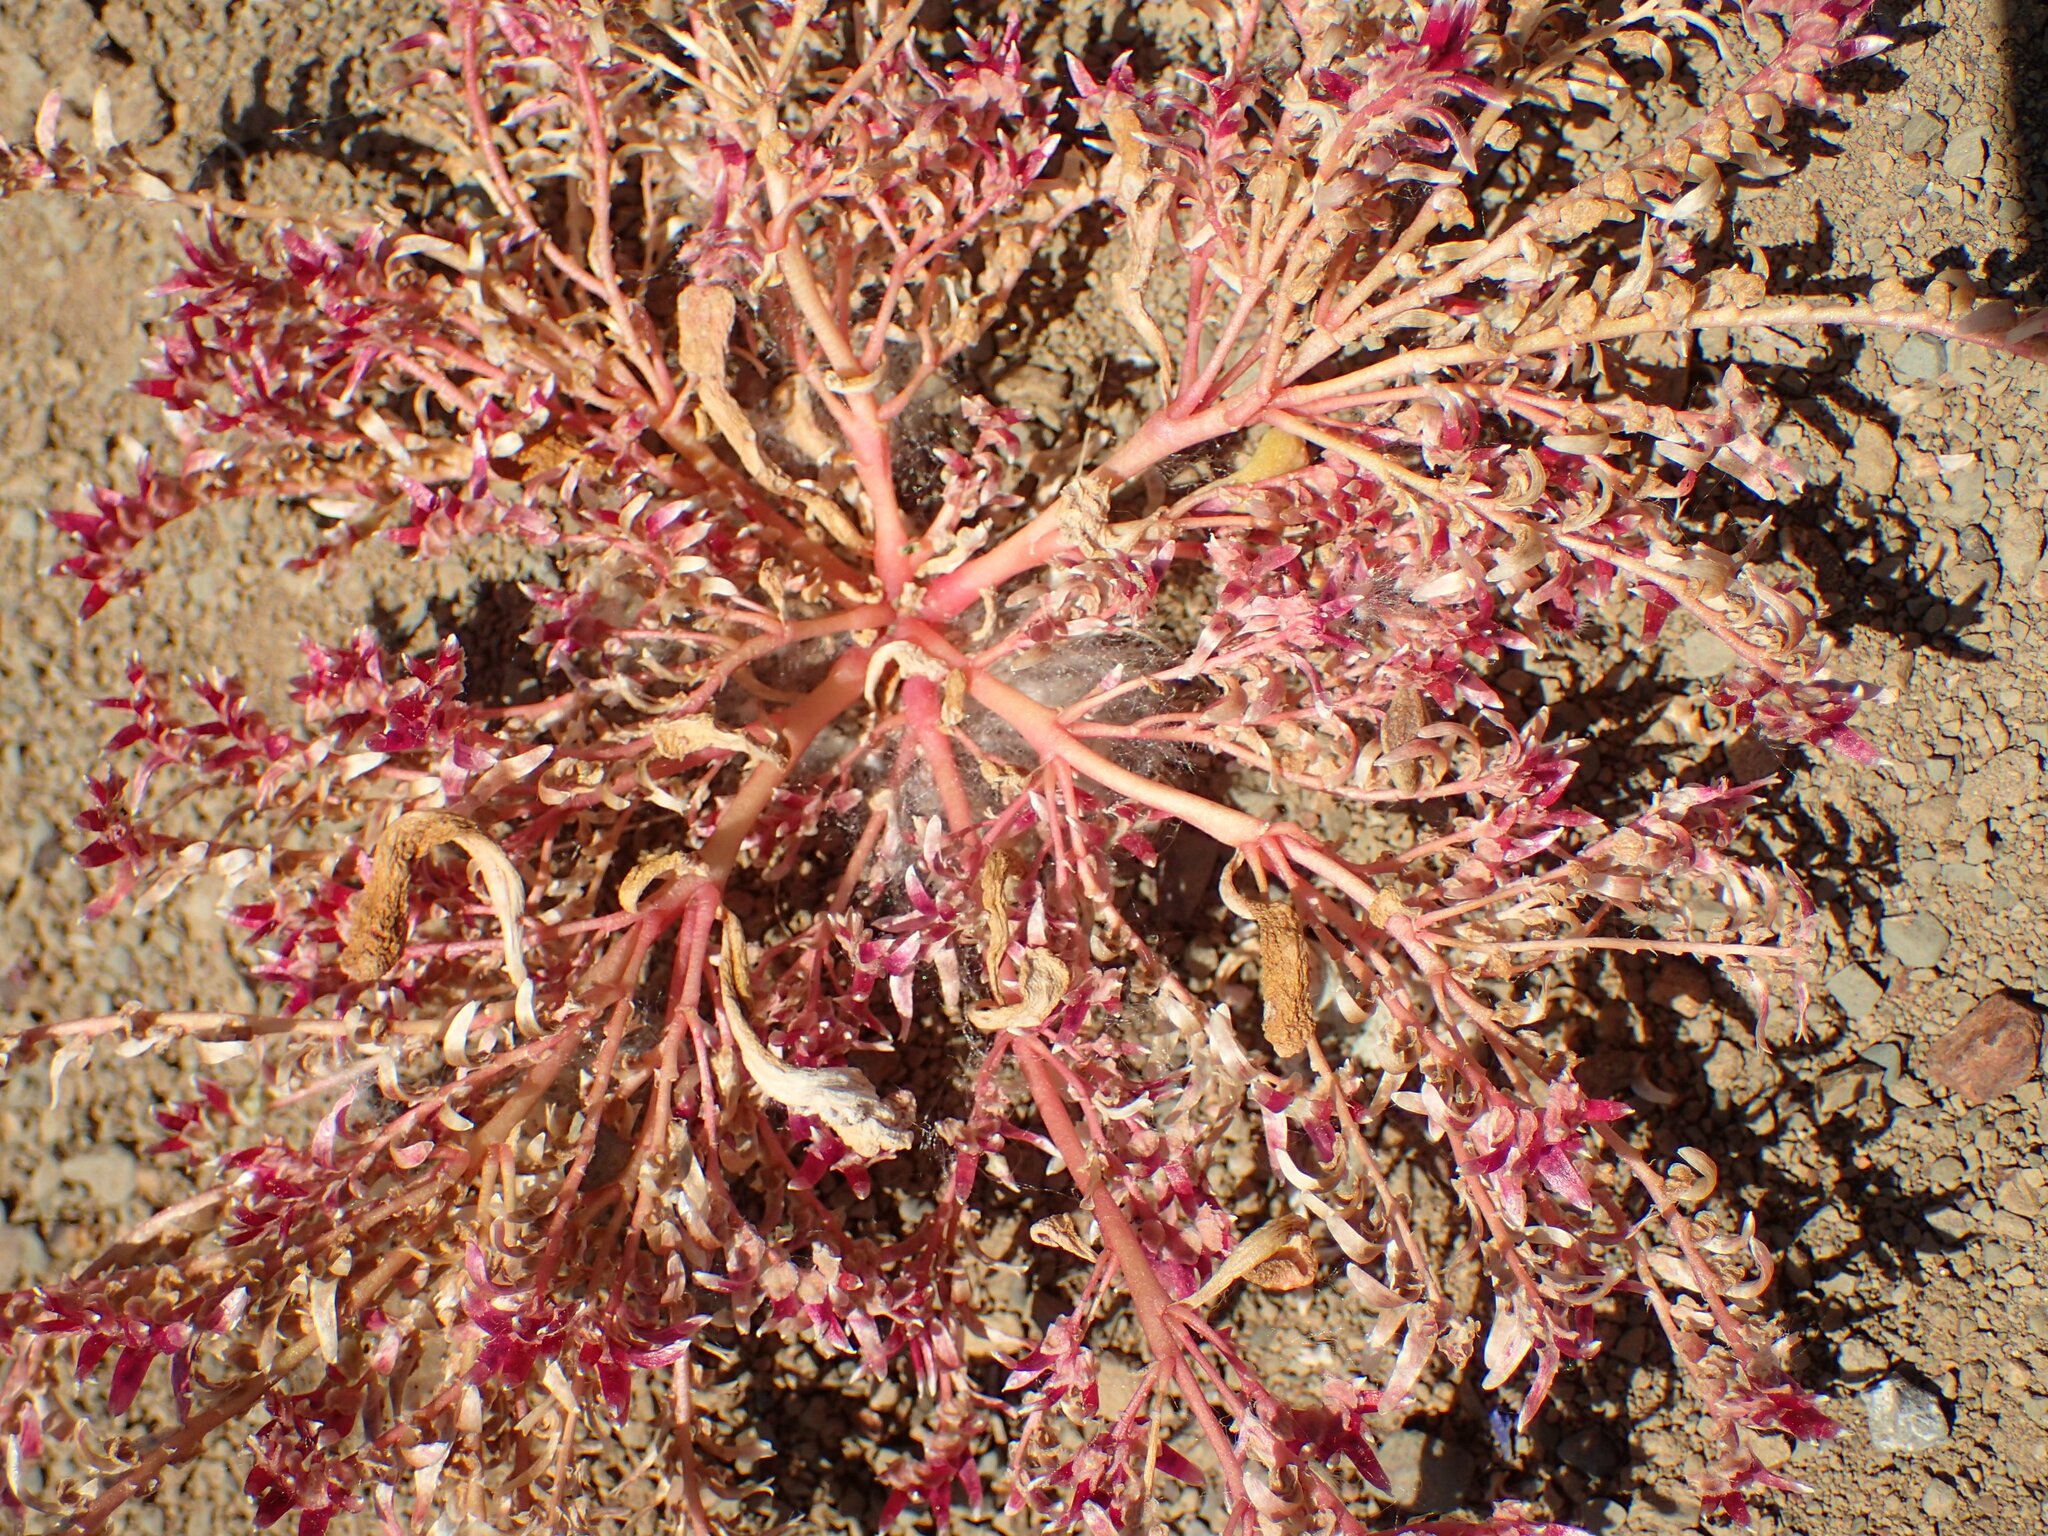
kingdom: Plantae
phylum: Tracheophyta
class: Magnoliopsida
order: Caryophyllales
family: Montiaceae
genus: Calyptridium
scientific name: Calyptridium monandrum
